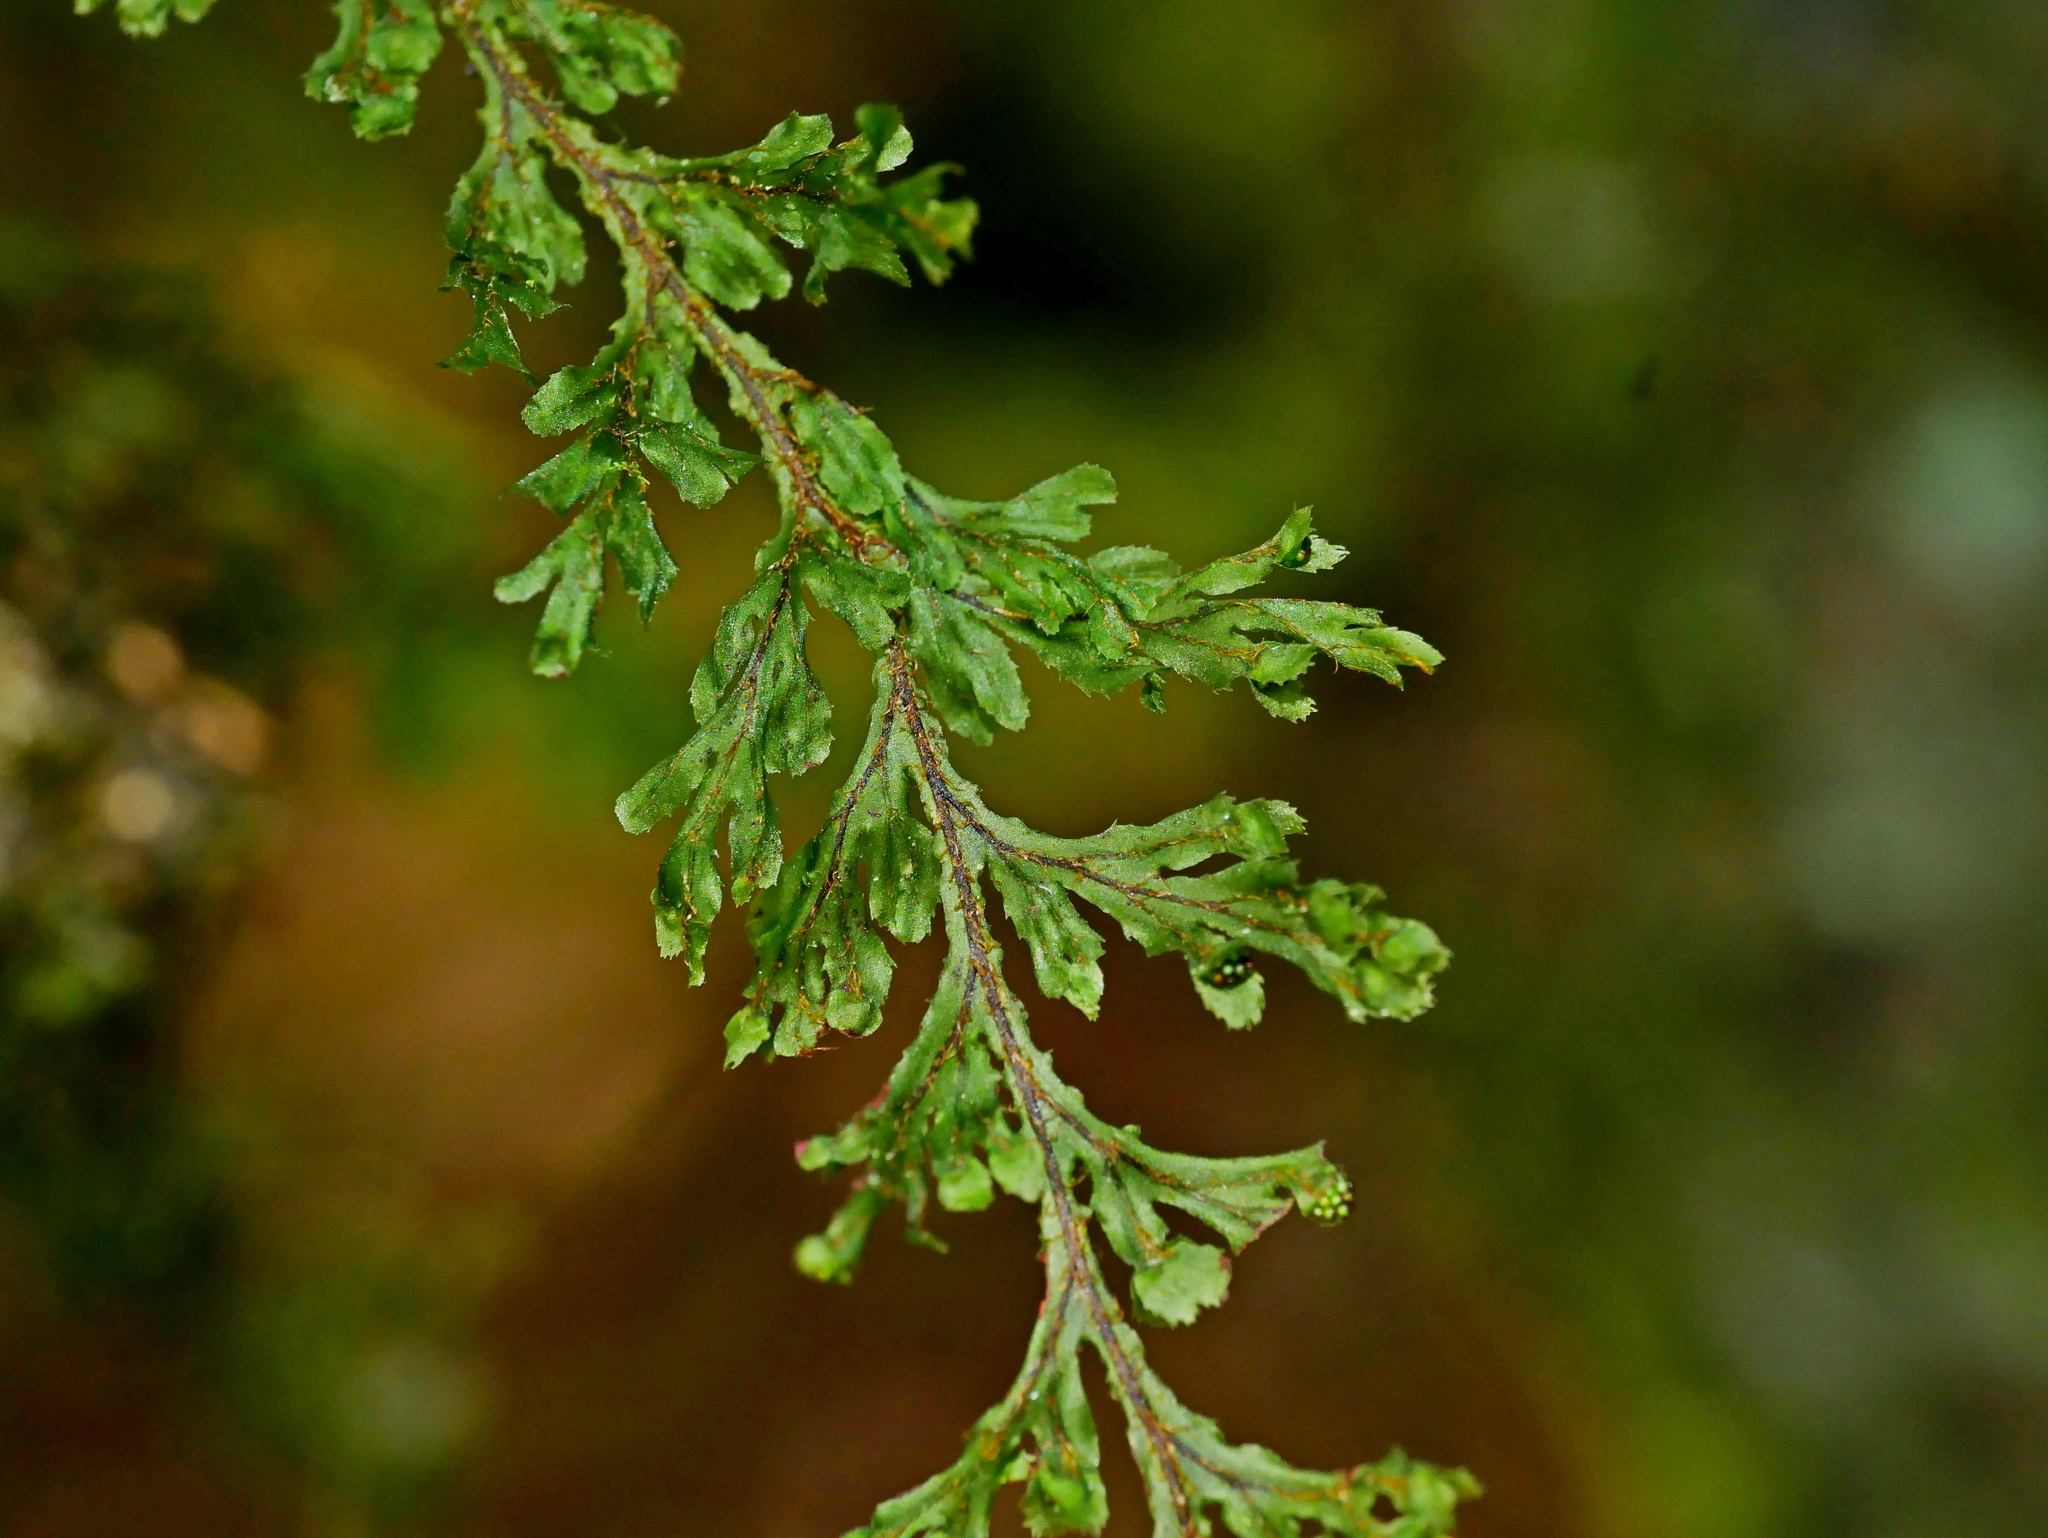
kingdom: Plantae
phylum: Tracheophyta
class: Polypodiopsida
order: Hymenophyllales
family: Hymenophyllaceae
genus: Hymenophyllum
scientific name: Hymenophyllum okadae
